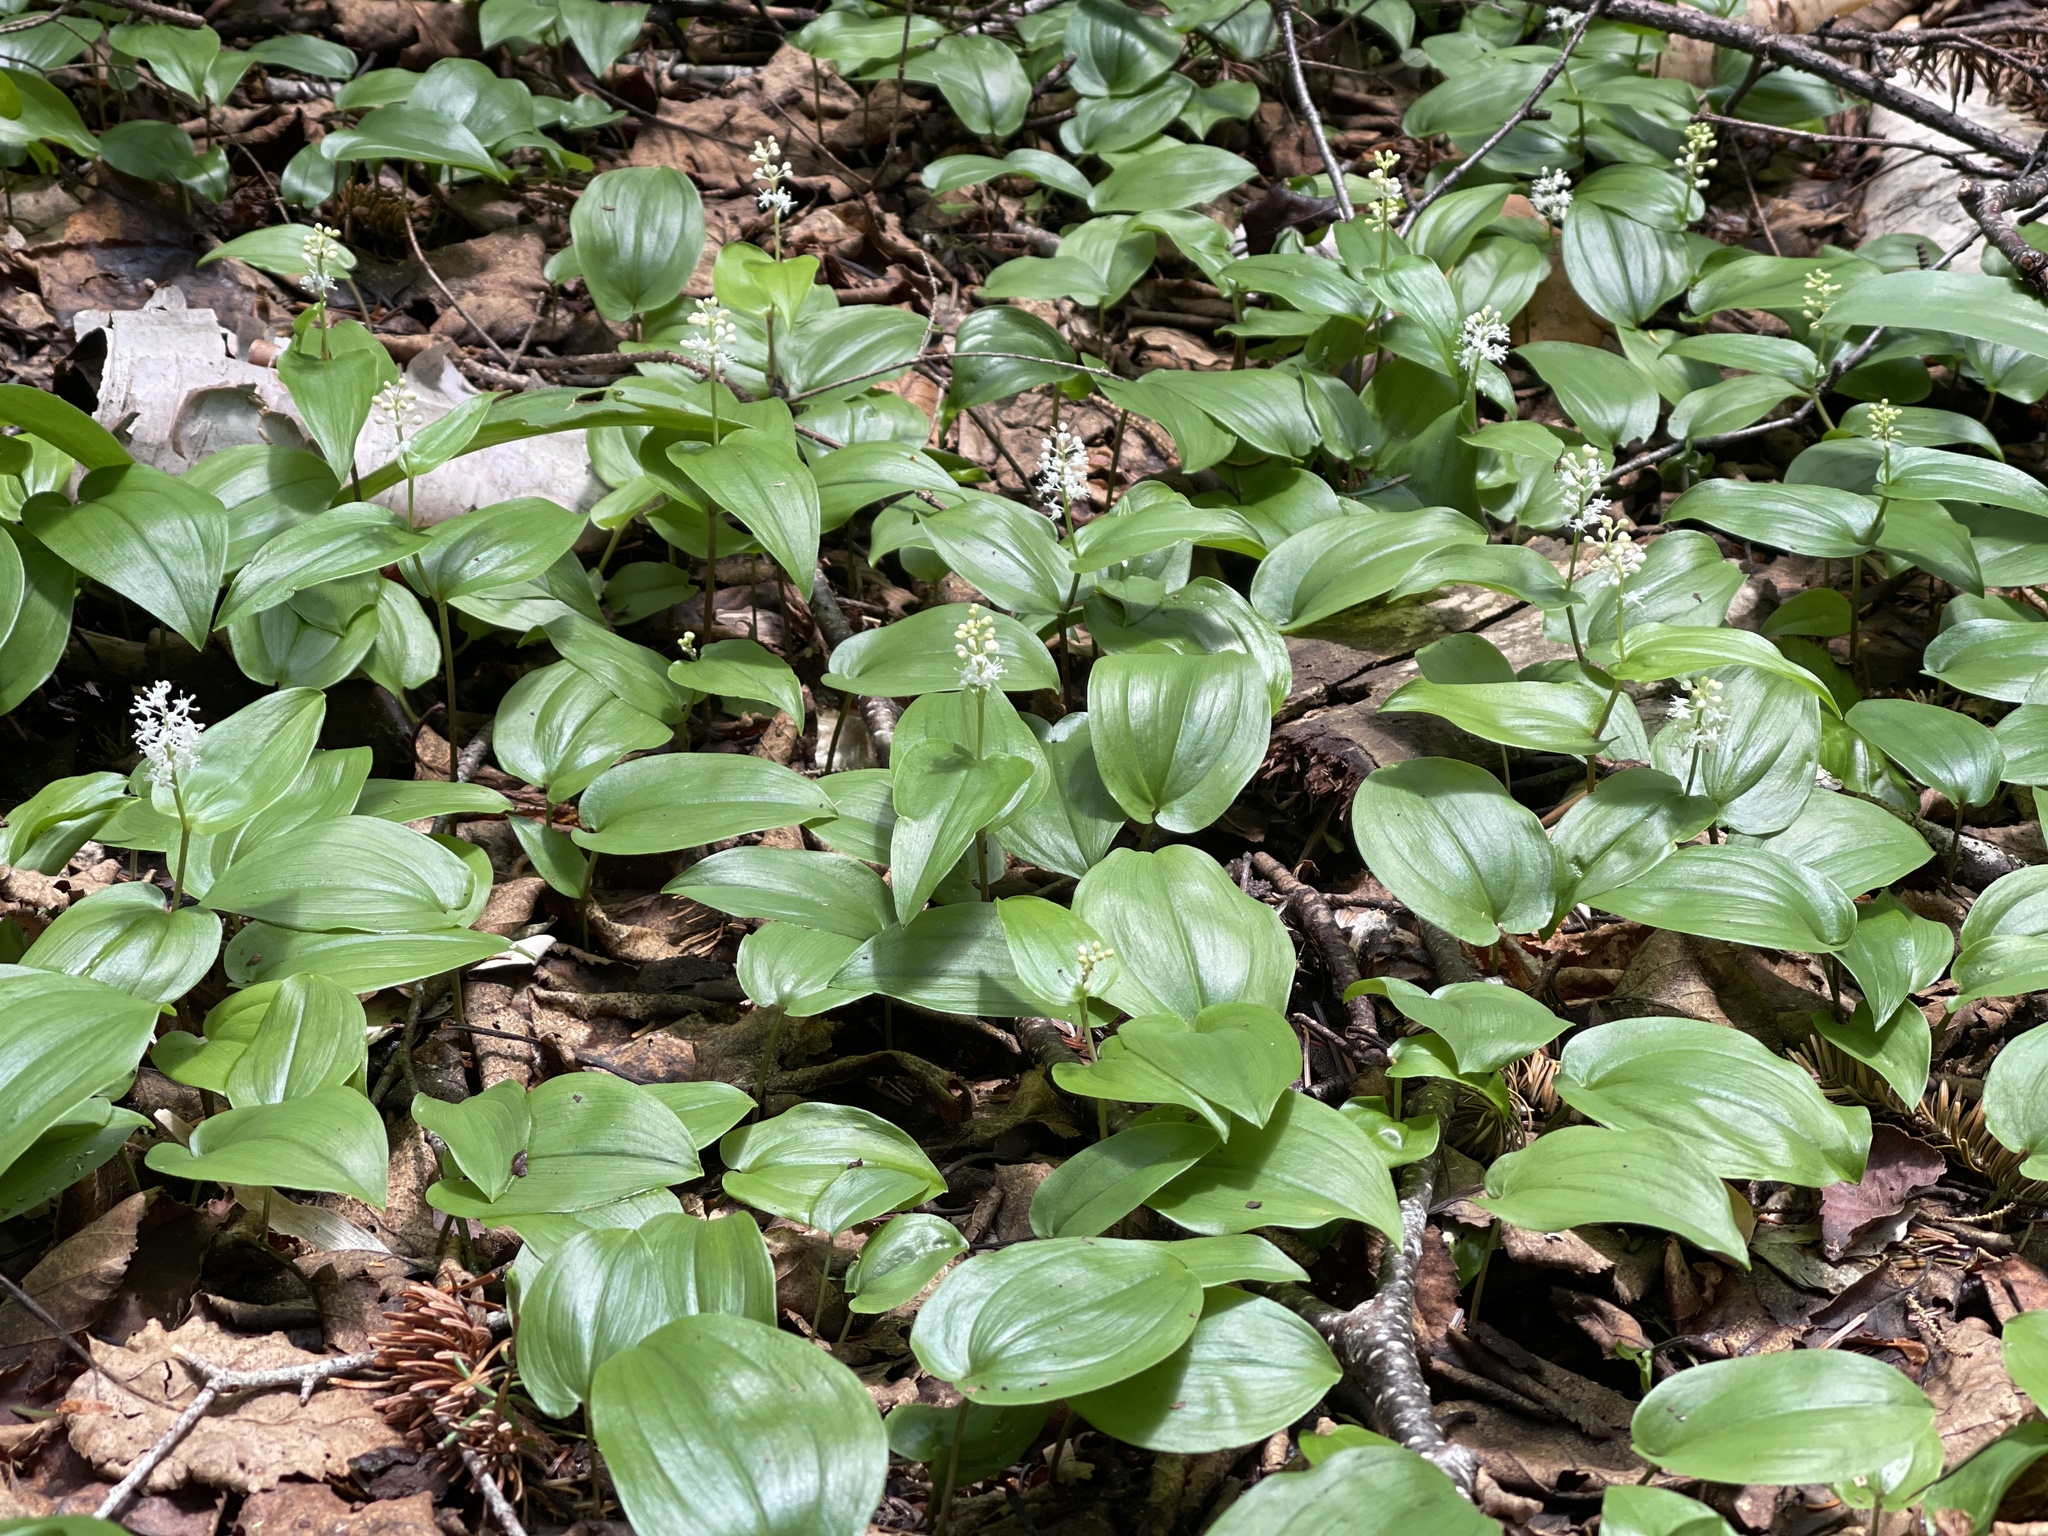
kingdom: Plantae
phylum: Tracheophyta
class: Liliopsida
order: Asparagales
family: Asparagaceae
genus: Maianthemum
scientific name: Maianthemum canadense
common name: False lily-of-the-valley
